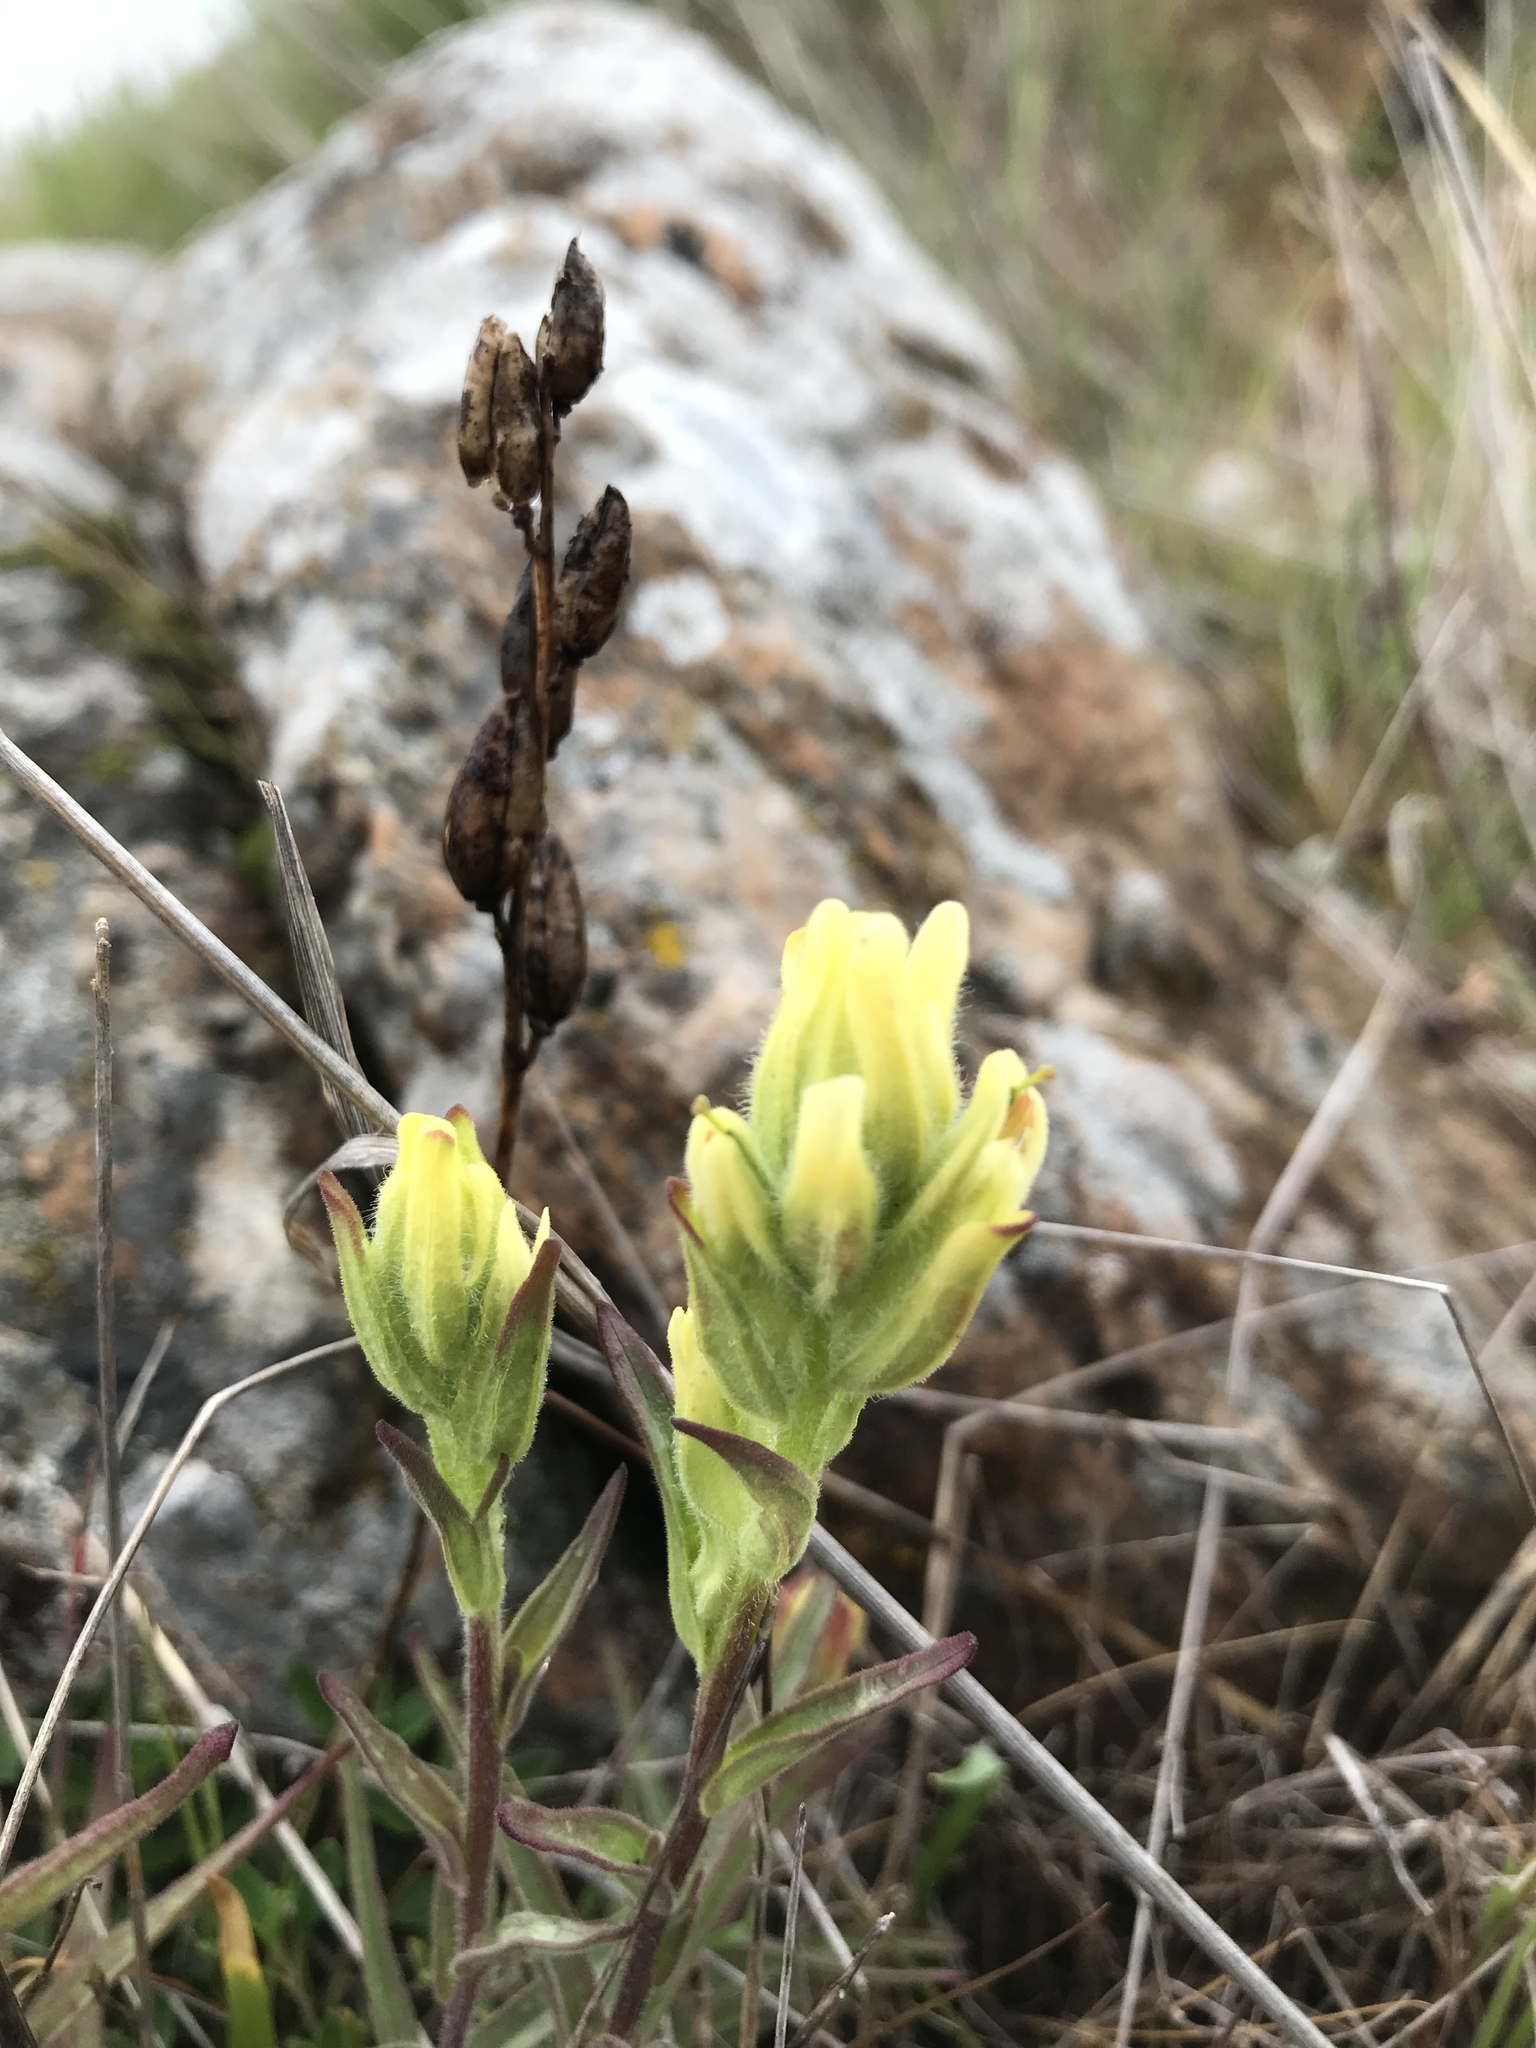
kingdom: Plantae
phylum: Tracheophyta
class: Magnoliopsida
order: Lamiales
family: Orobanchaceae
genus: Castilleja
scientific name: Castilleja affinis
